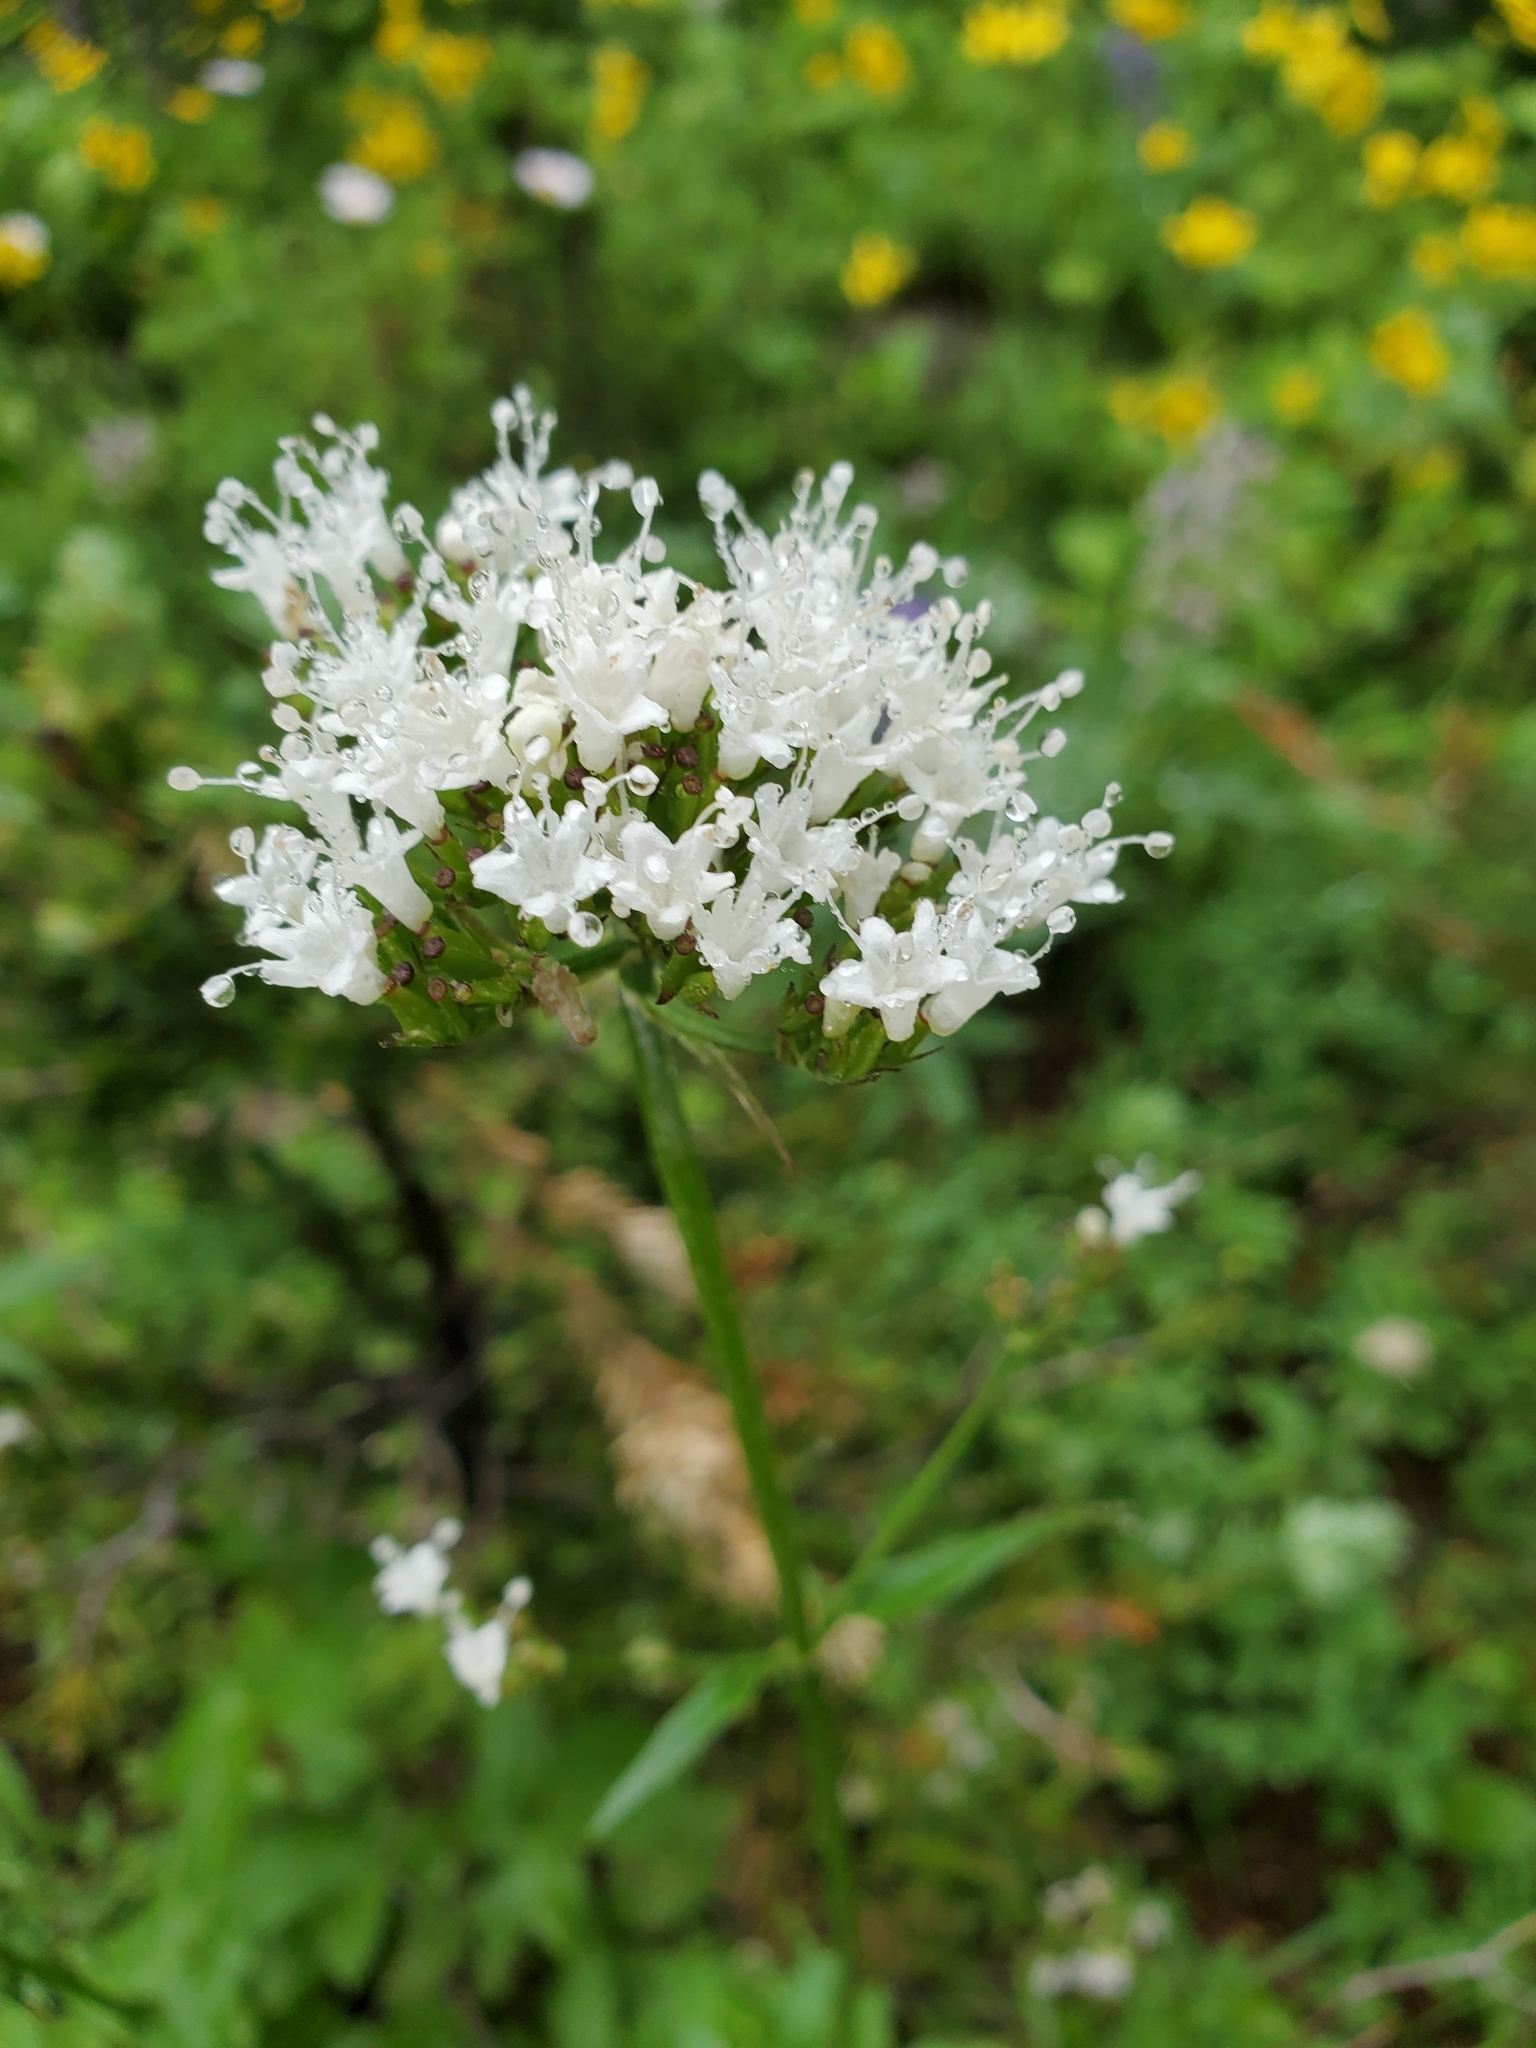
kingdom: Plantae
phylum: Tracheophyta
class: Magnoliopsida
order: Dipsacales
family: Caprifoliaceae
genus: Valeriana
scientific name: Valeriana sitchensis
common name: Pacific valerian
